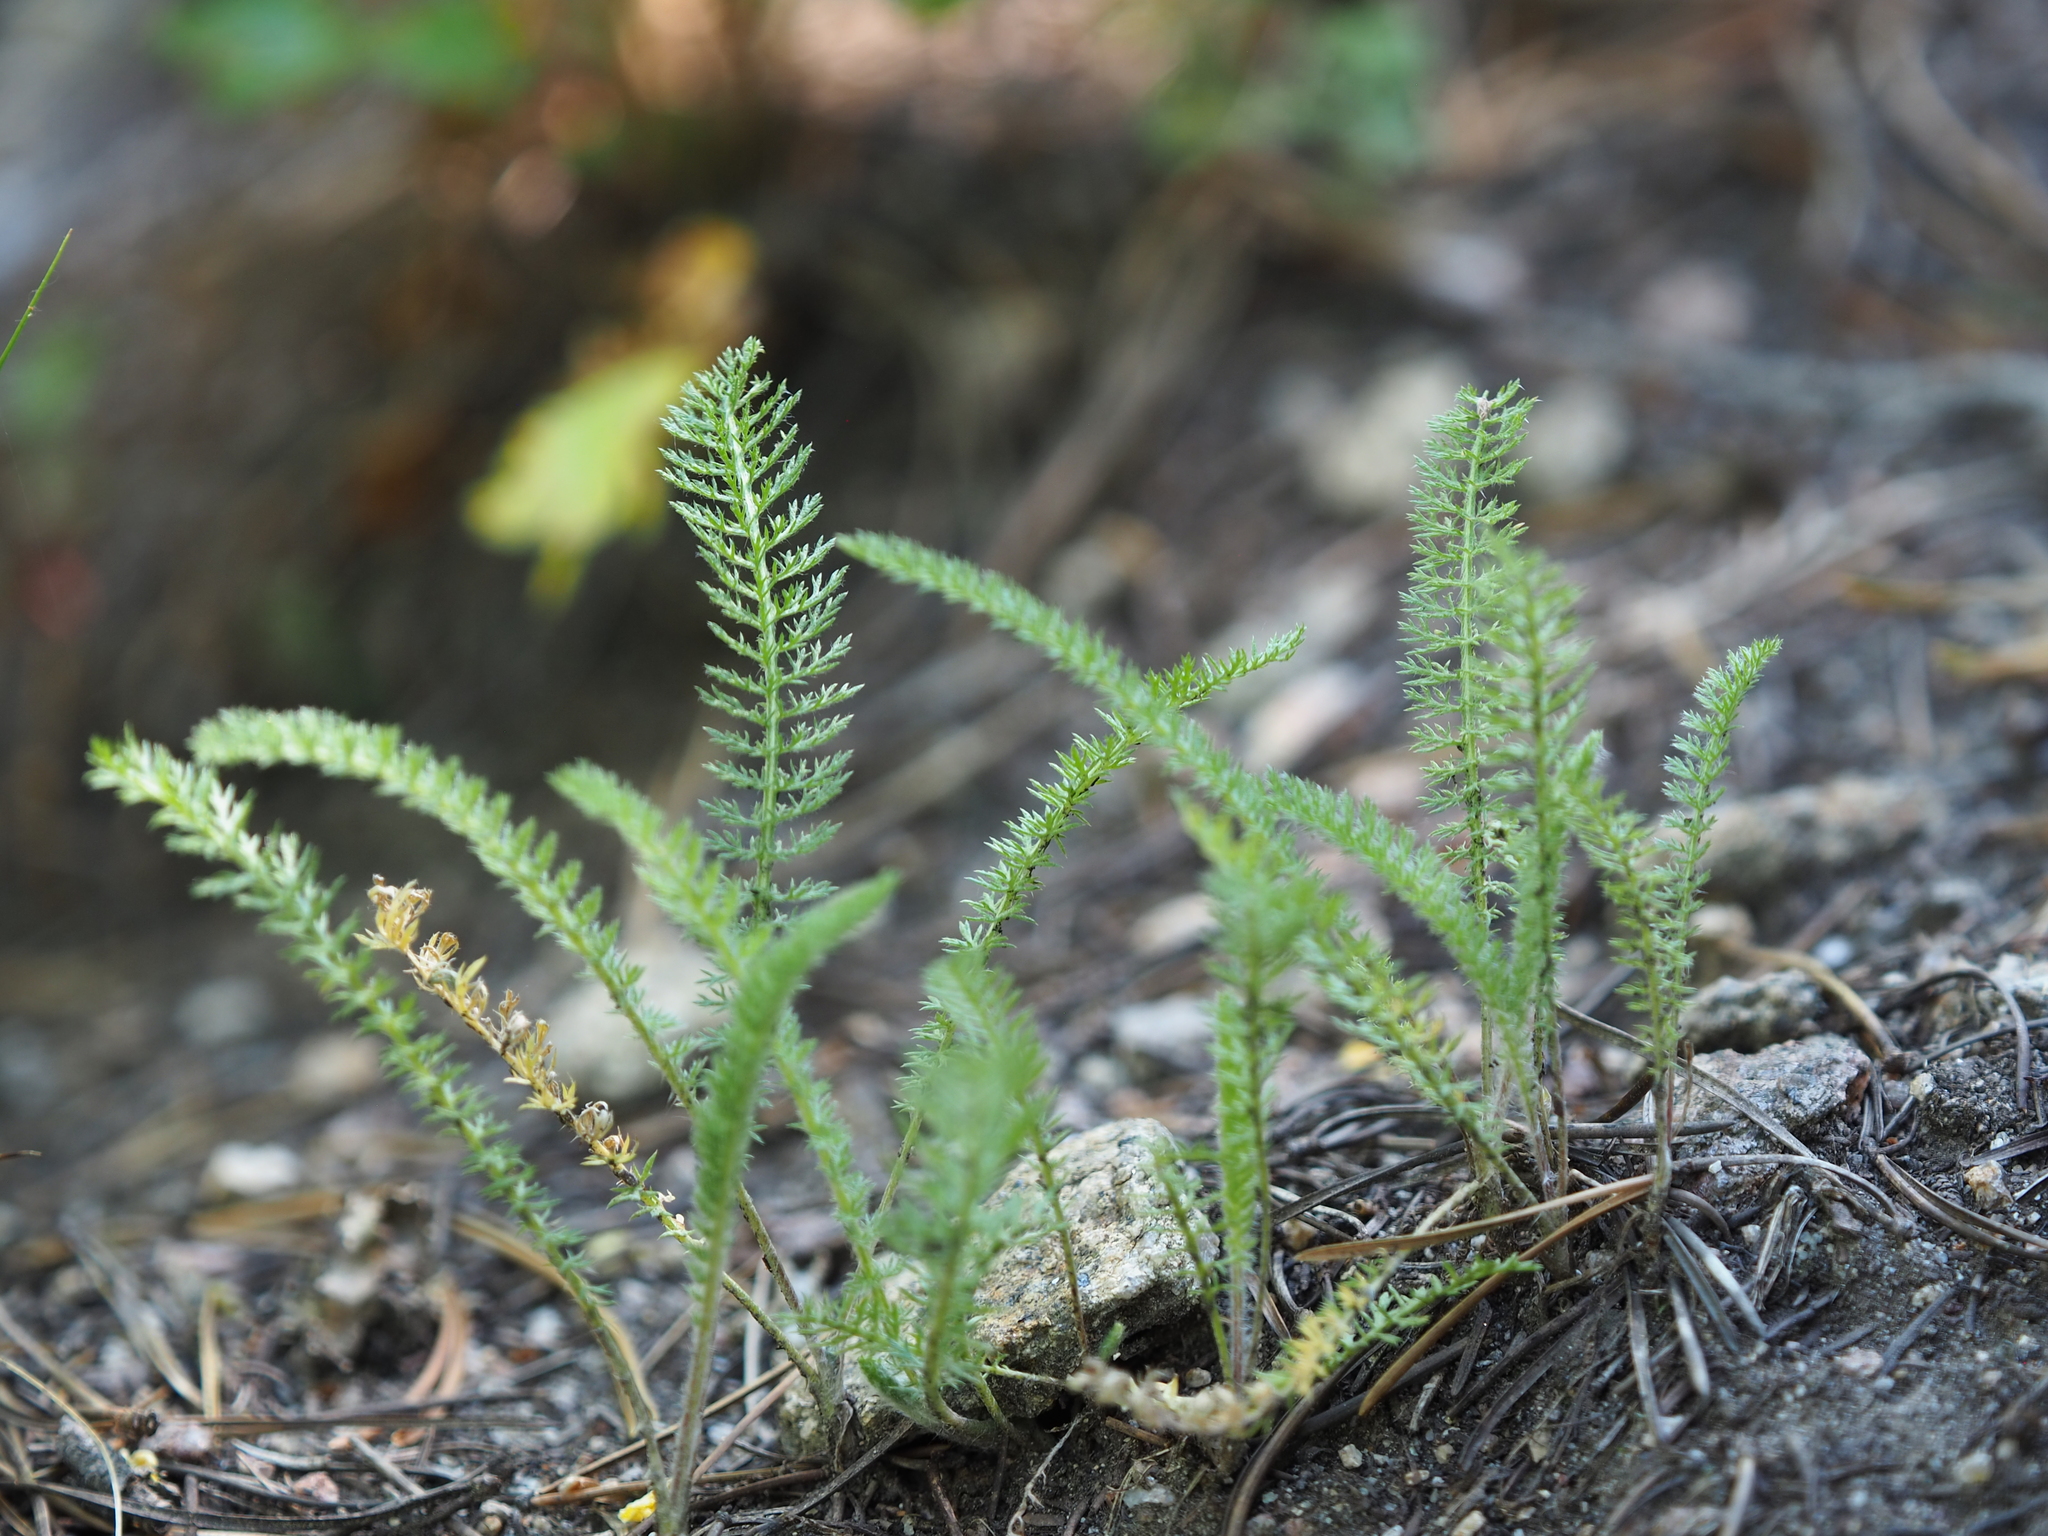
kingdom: Plantae
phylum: Tracheophyta
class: Magnoliopsida
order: Asterales
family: Asteraceae
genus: Achillea
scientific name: Achillea millefolium
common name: Yarrow
